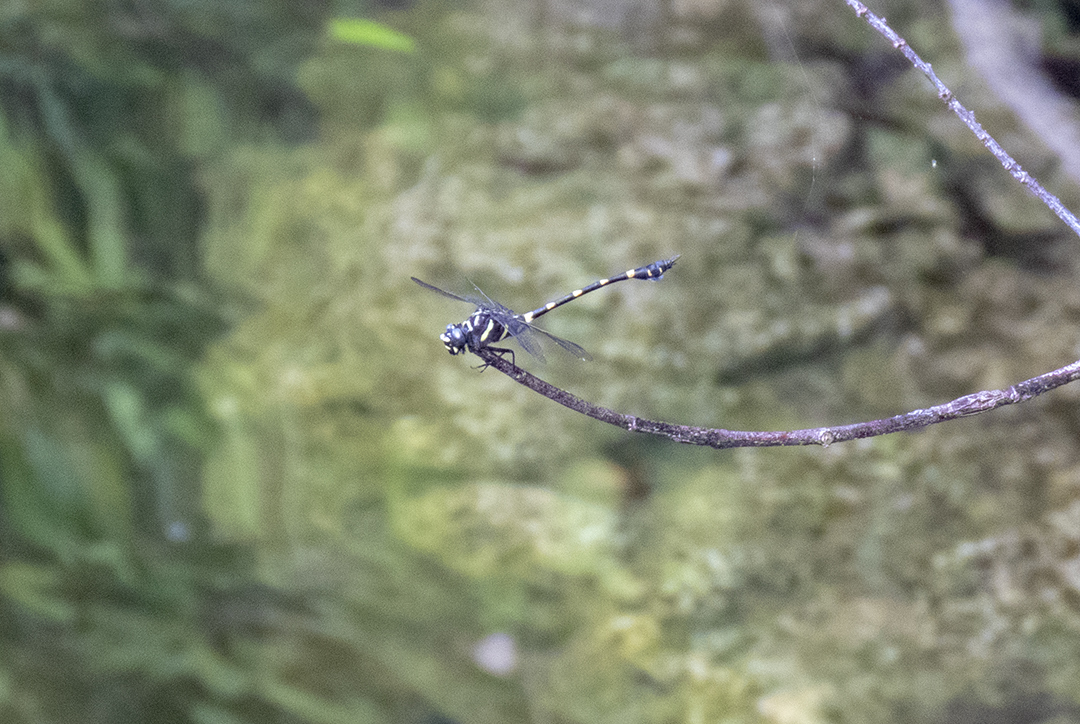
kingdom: Animalia
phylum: Arthropoda
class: Insecta
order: Odonata
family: Gomphidae
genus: Ictinogomphus
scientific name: Ictinogomphus decoratus
